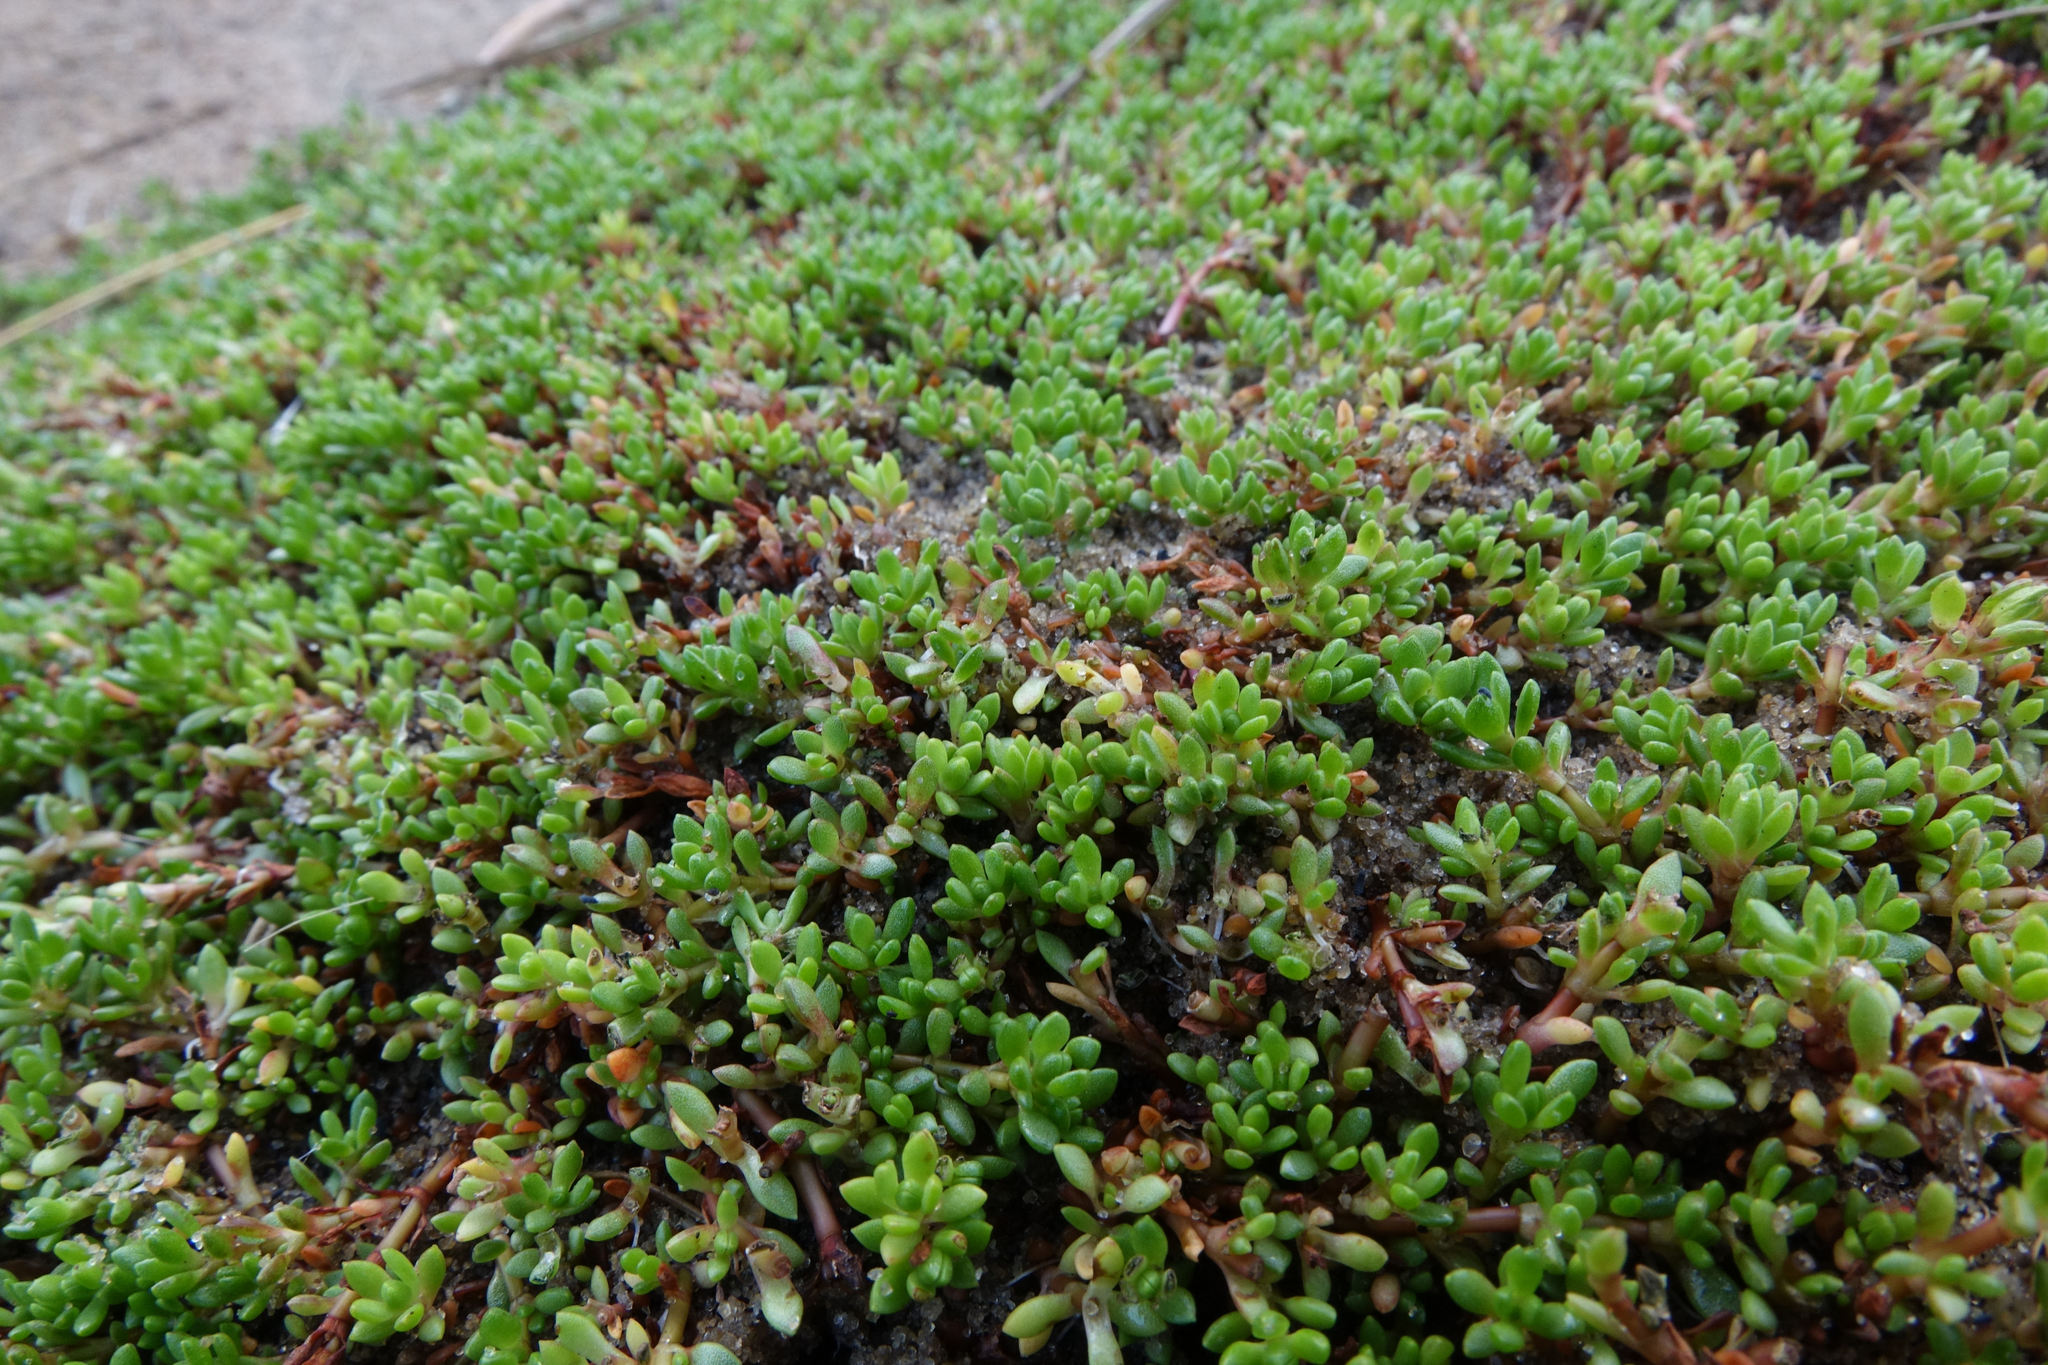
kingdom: Plantae
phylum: Tracheophyta
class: Magnoliopsida
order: Saxifragales
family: Crassulaceae
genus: Crassula
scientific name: Crassula moschata
